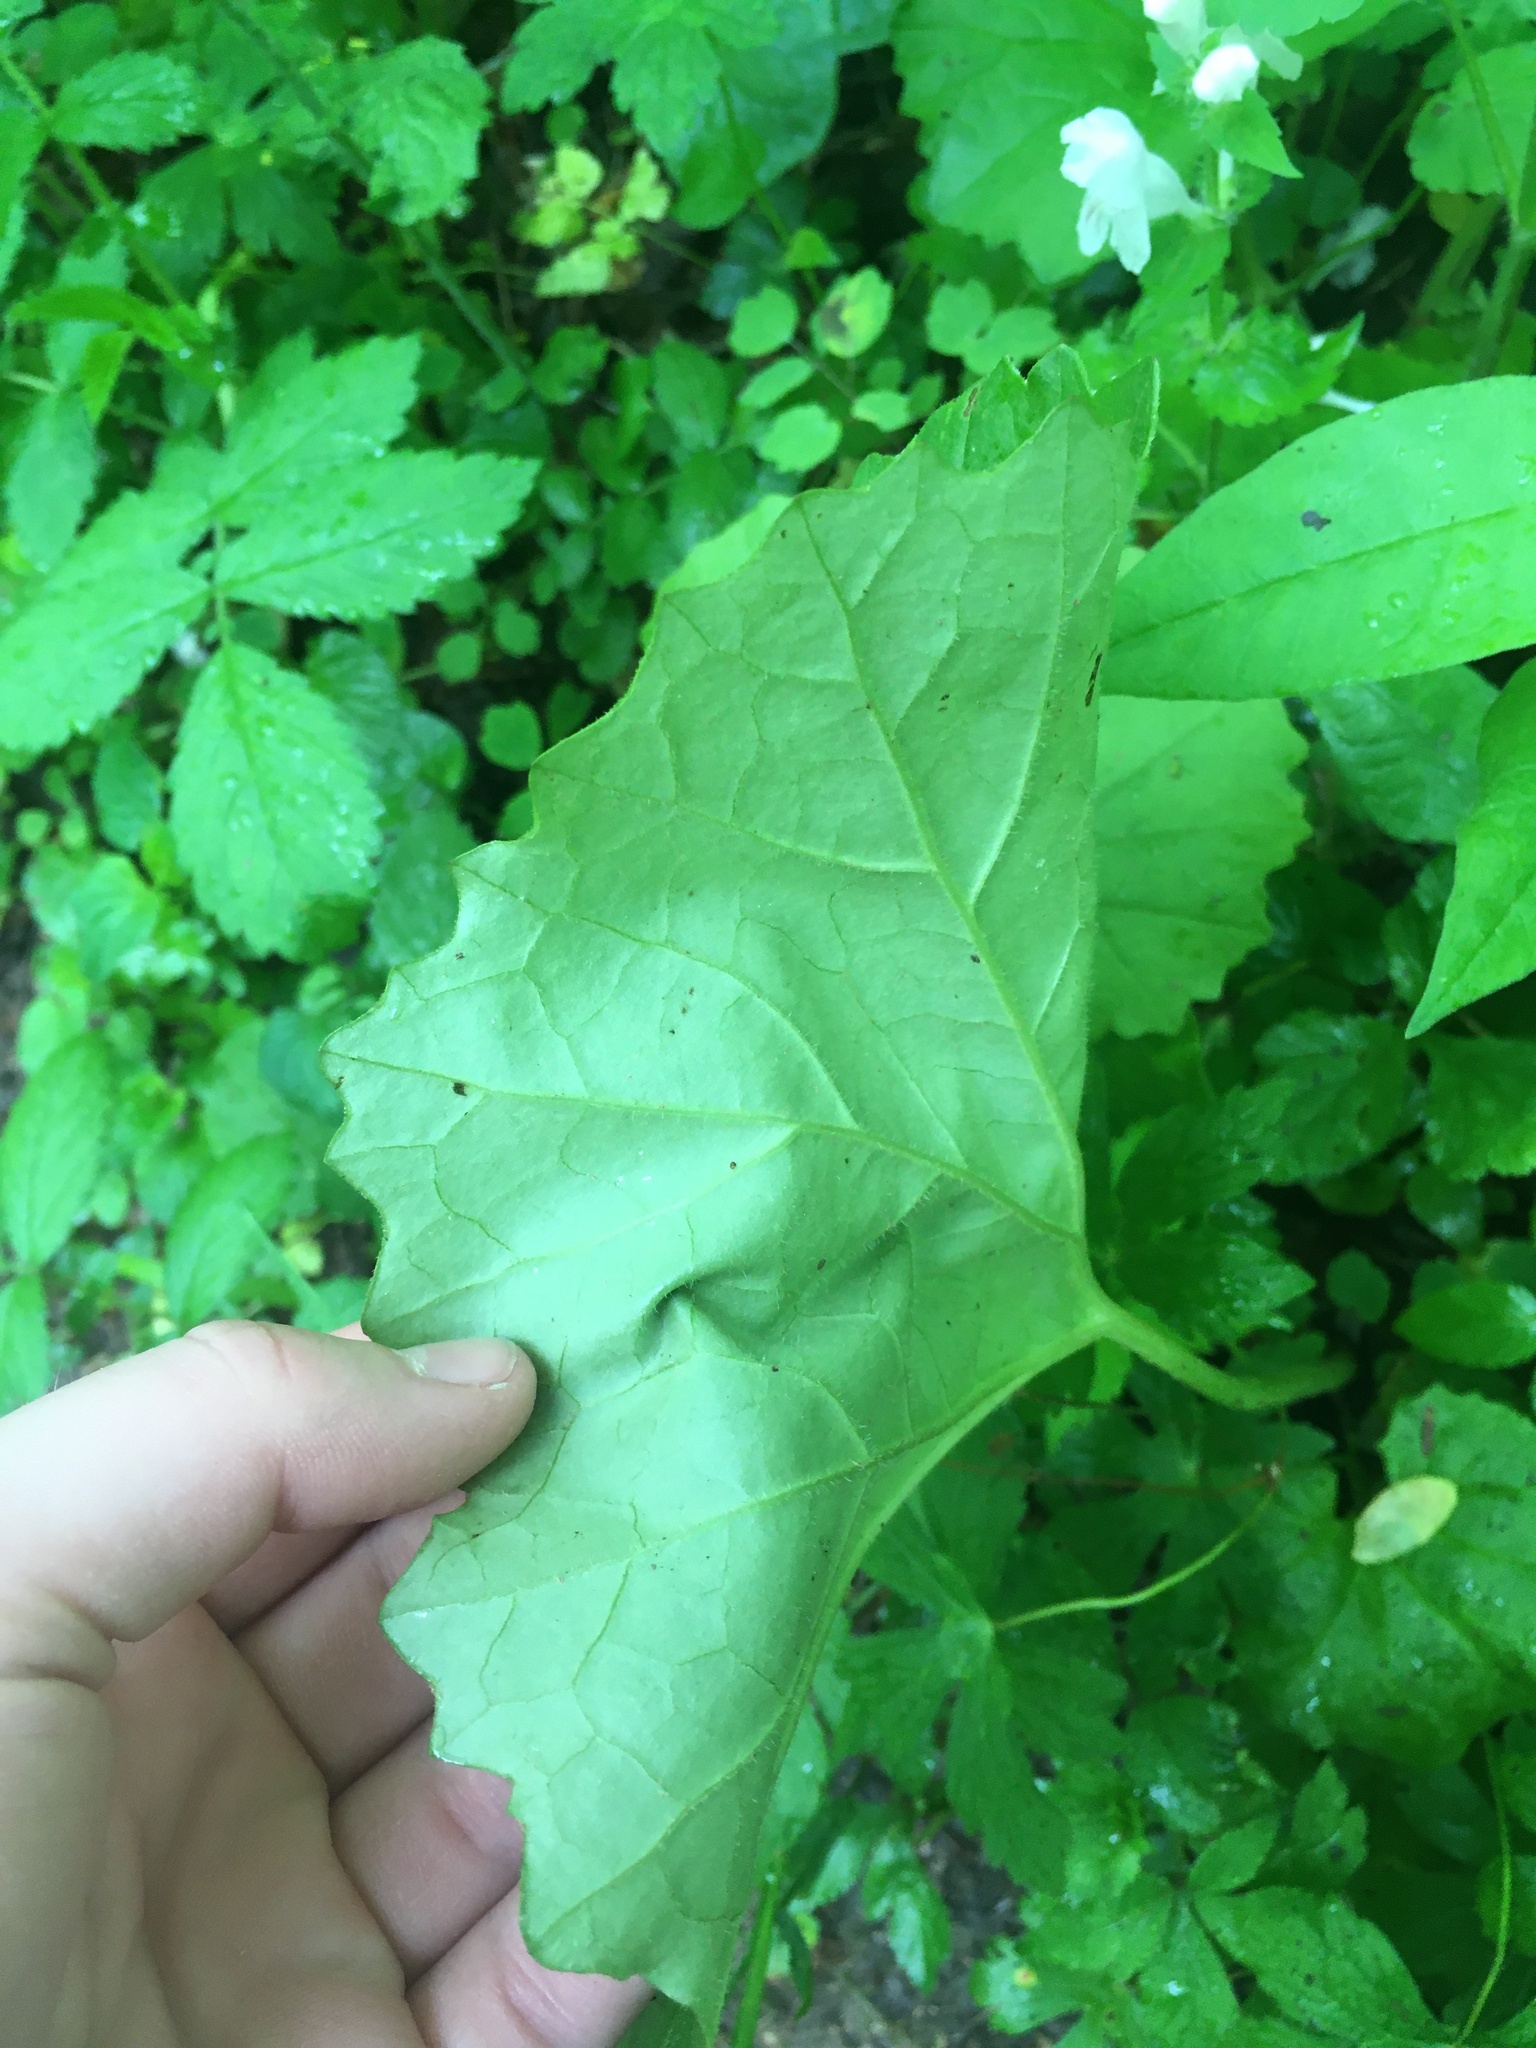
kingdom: Plantae
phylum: Tracheophyta
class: Magnoliopsida
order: Asterales
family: Asteraceae
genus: Arnoglossum
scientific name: Arnoglossum reniforme
